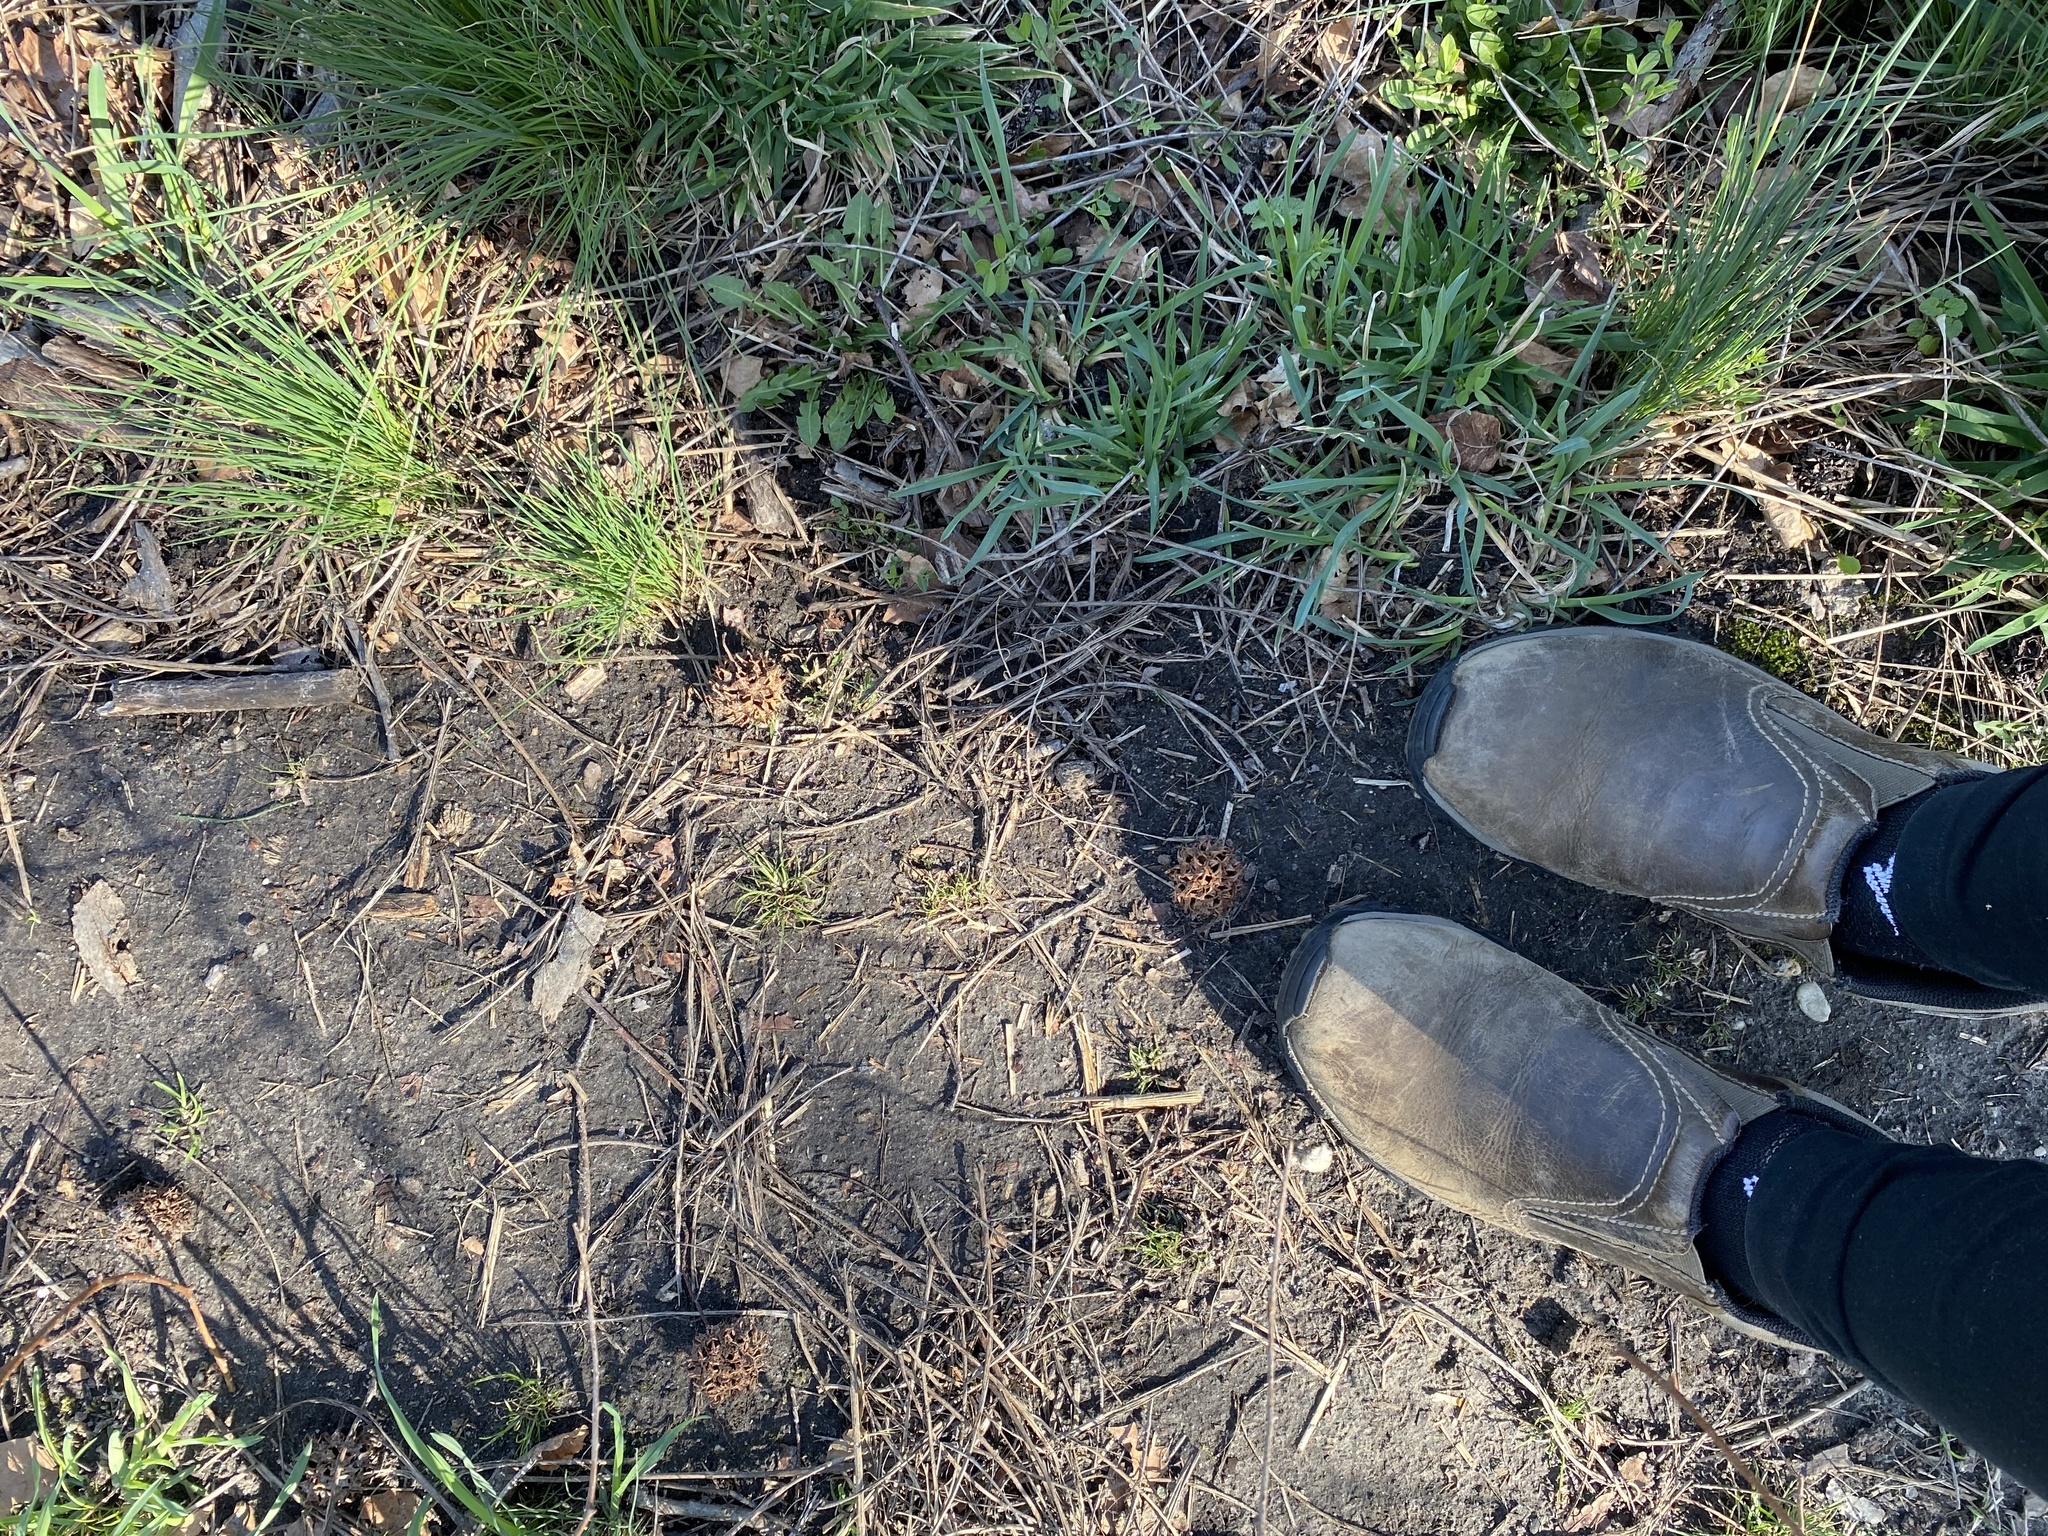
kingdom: Plantae
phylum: Tracheophyta
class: Magnoliopsida
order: Saxifragales
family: Altingiaceae
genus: Liquidambar
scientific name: Liquidambar styraciflua
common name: Sweet gum
